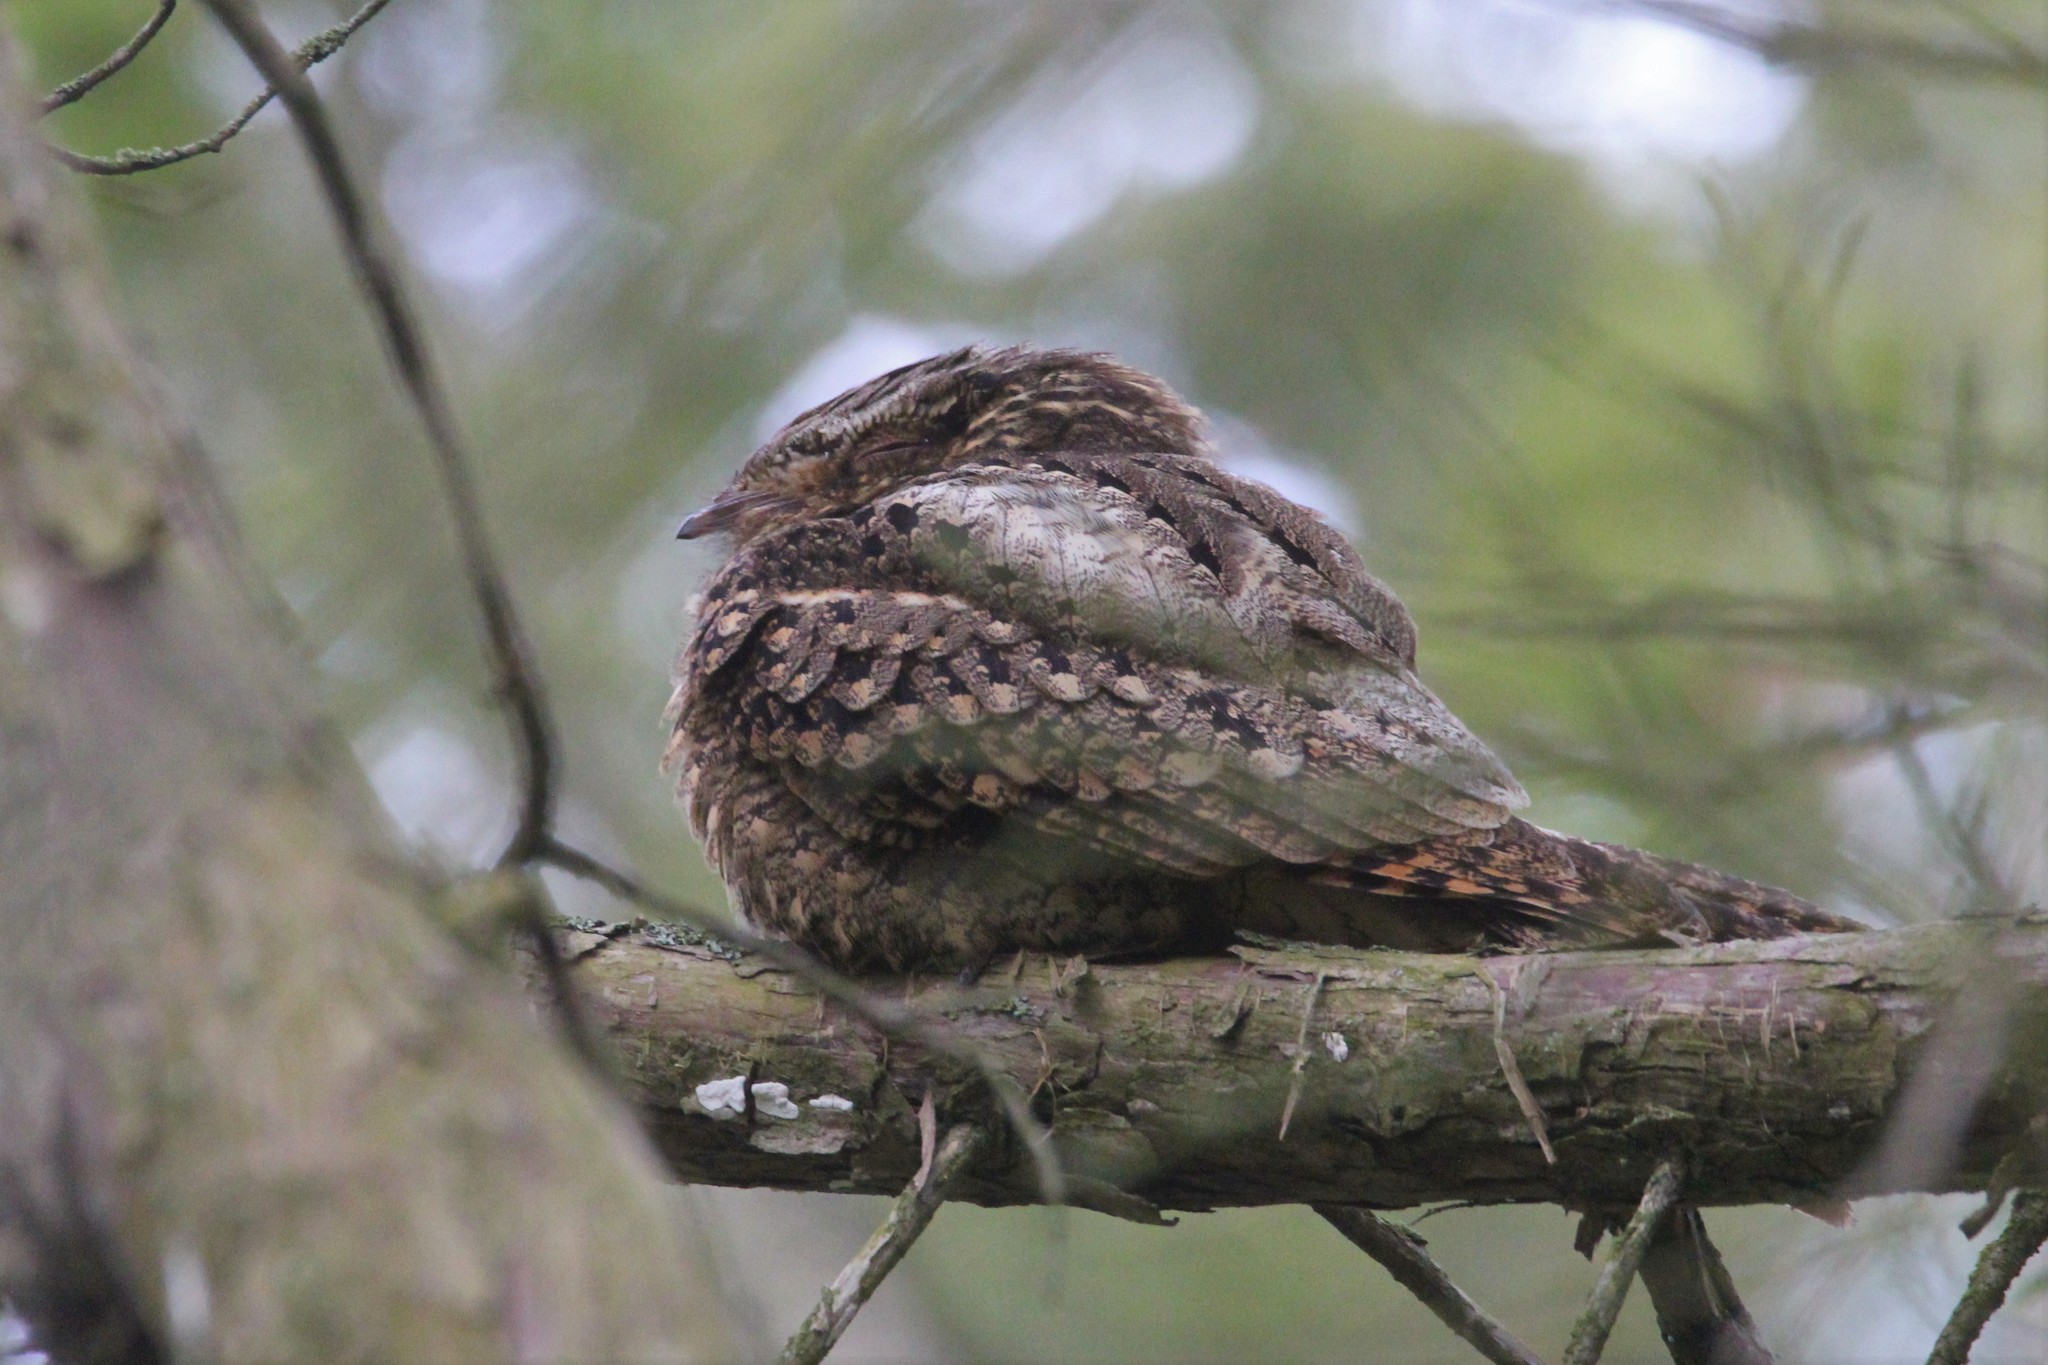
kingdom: Animalia
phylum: Chordata
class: Aves
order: Caprimulgiformes
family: Caprimulgidae
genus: Antrostomus
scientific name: Antrostomus carolinensis
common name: Chuck-will's-widow
